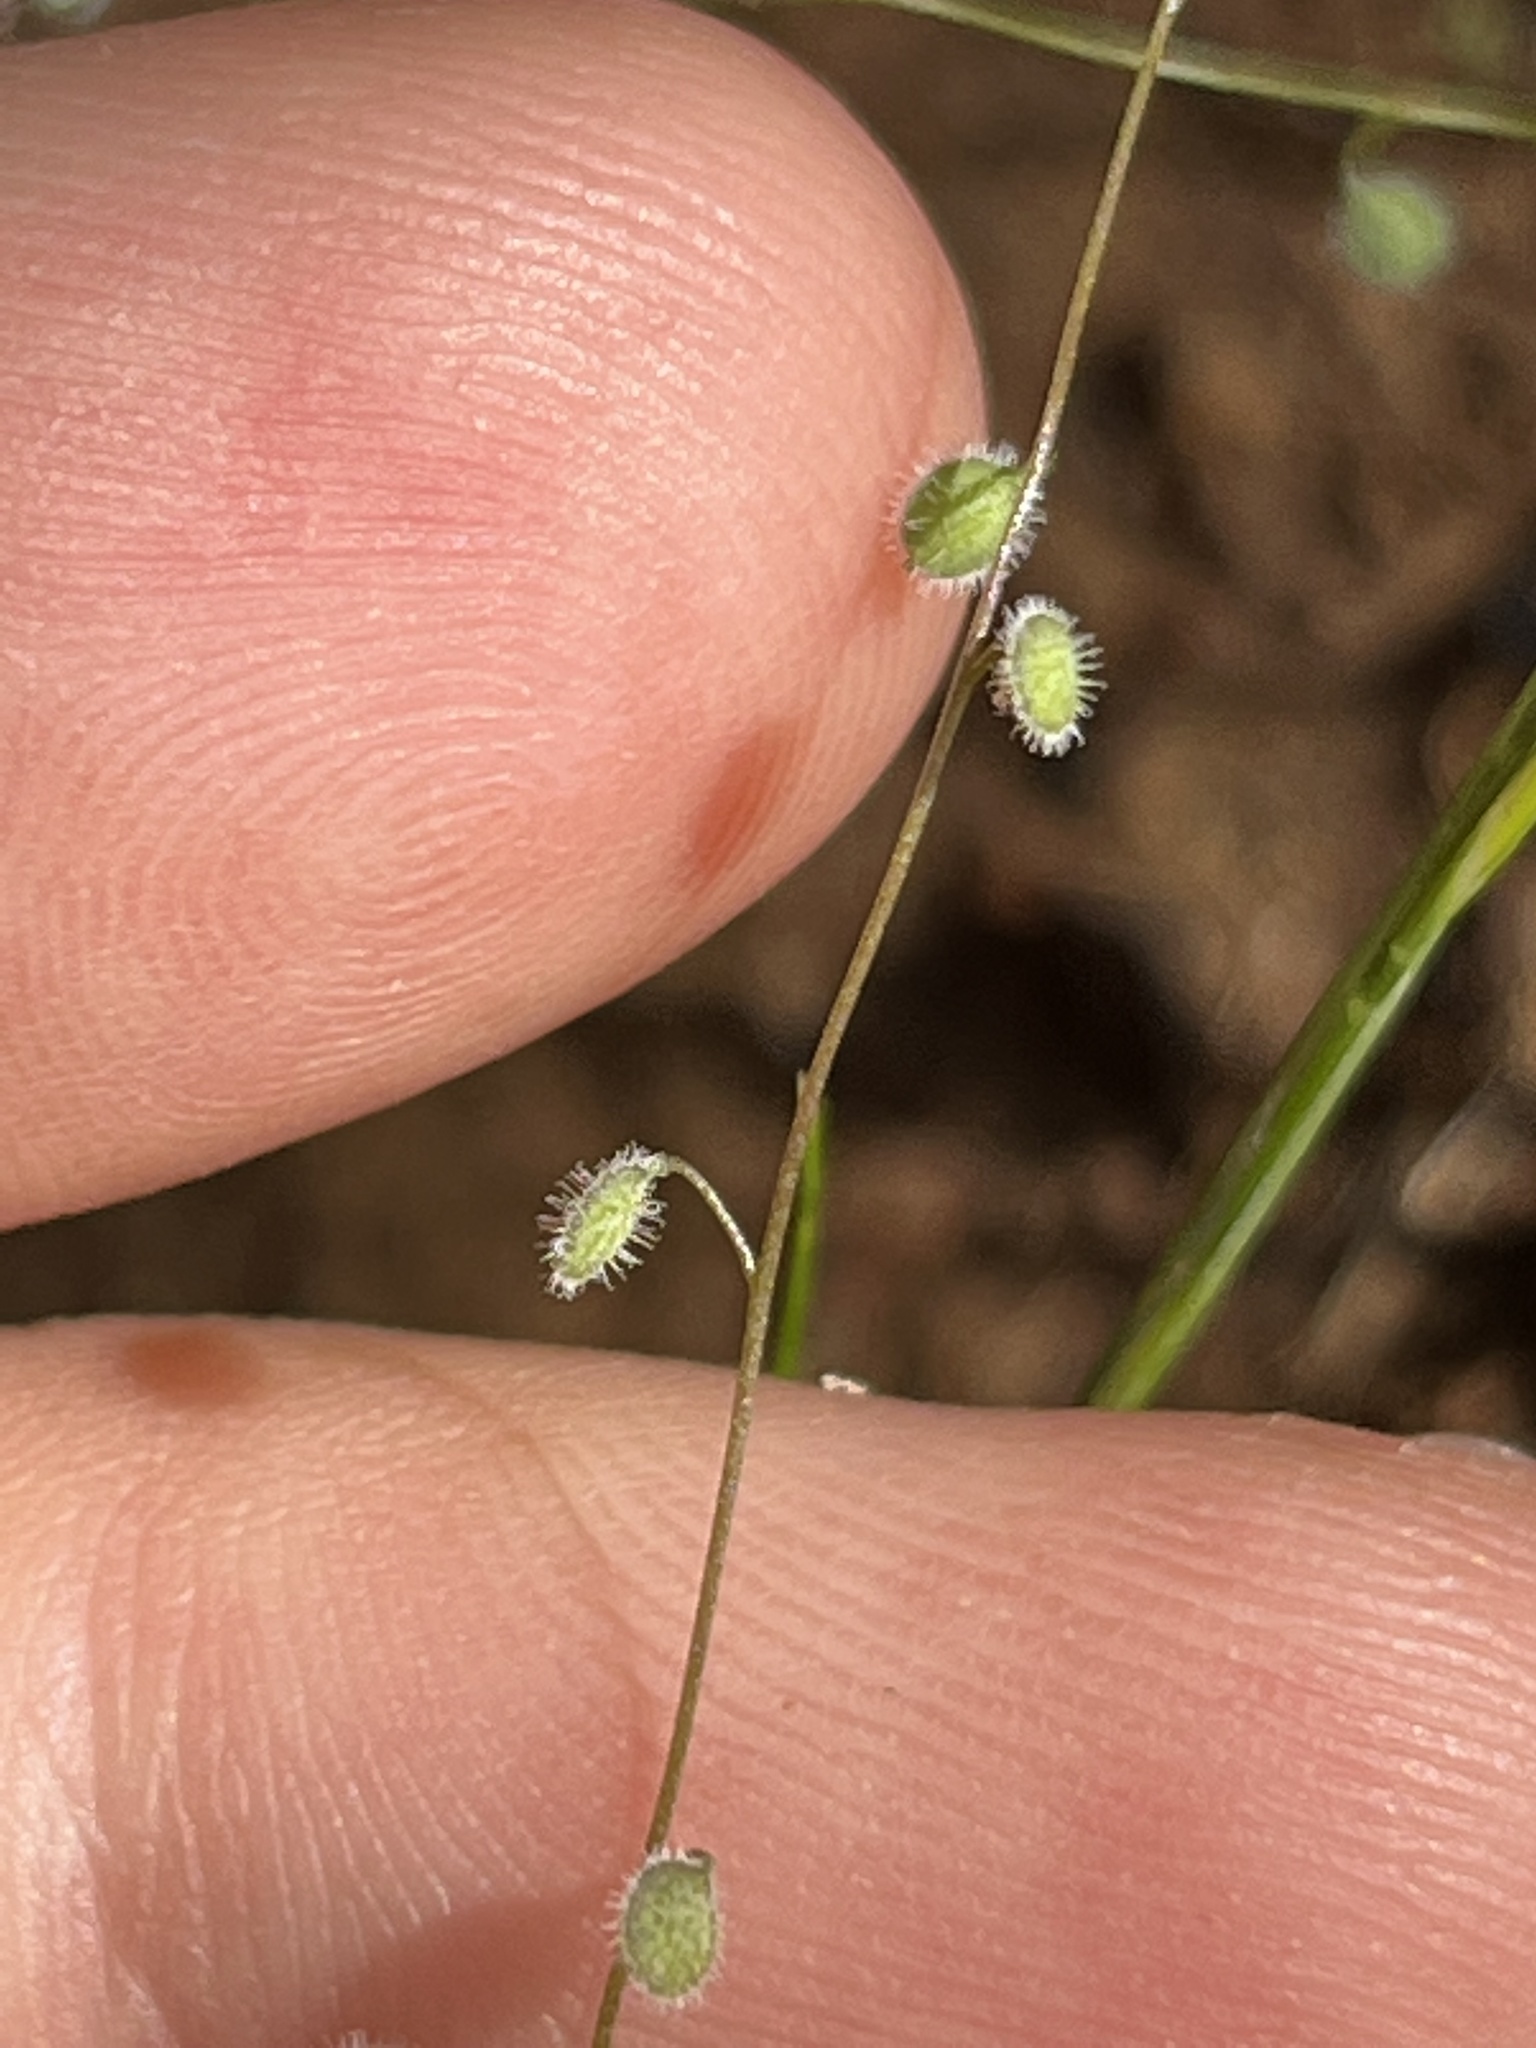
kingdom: Plantae
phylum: Tracheophyta
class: Magnoliopsida
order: Brassicales
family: Brassicaceae
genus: Athysanus
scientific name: Athysanus pusillus
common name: Common sandweed
